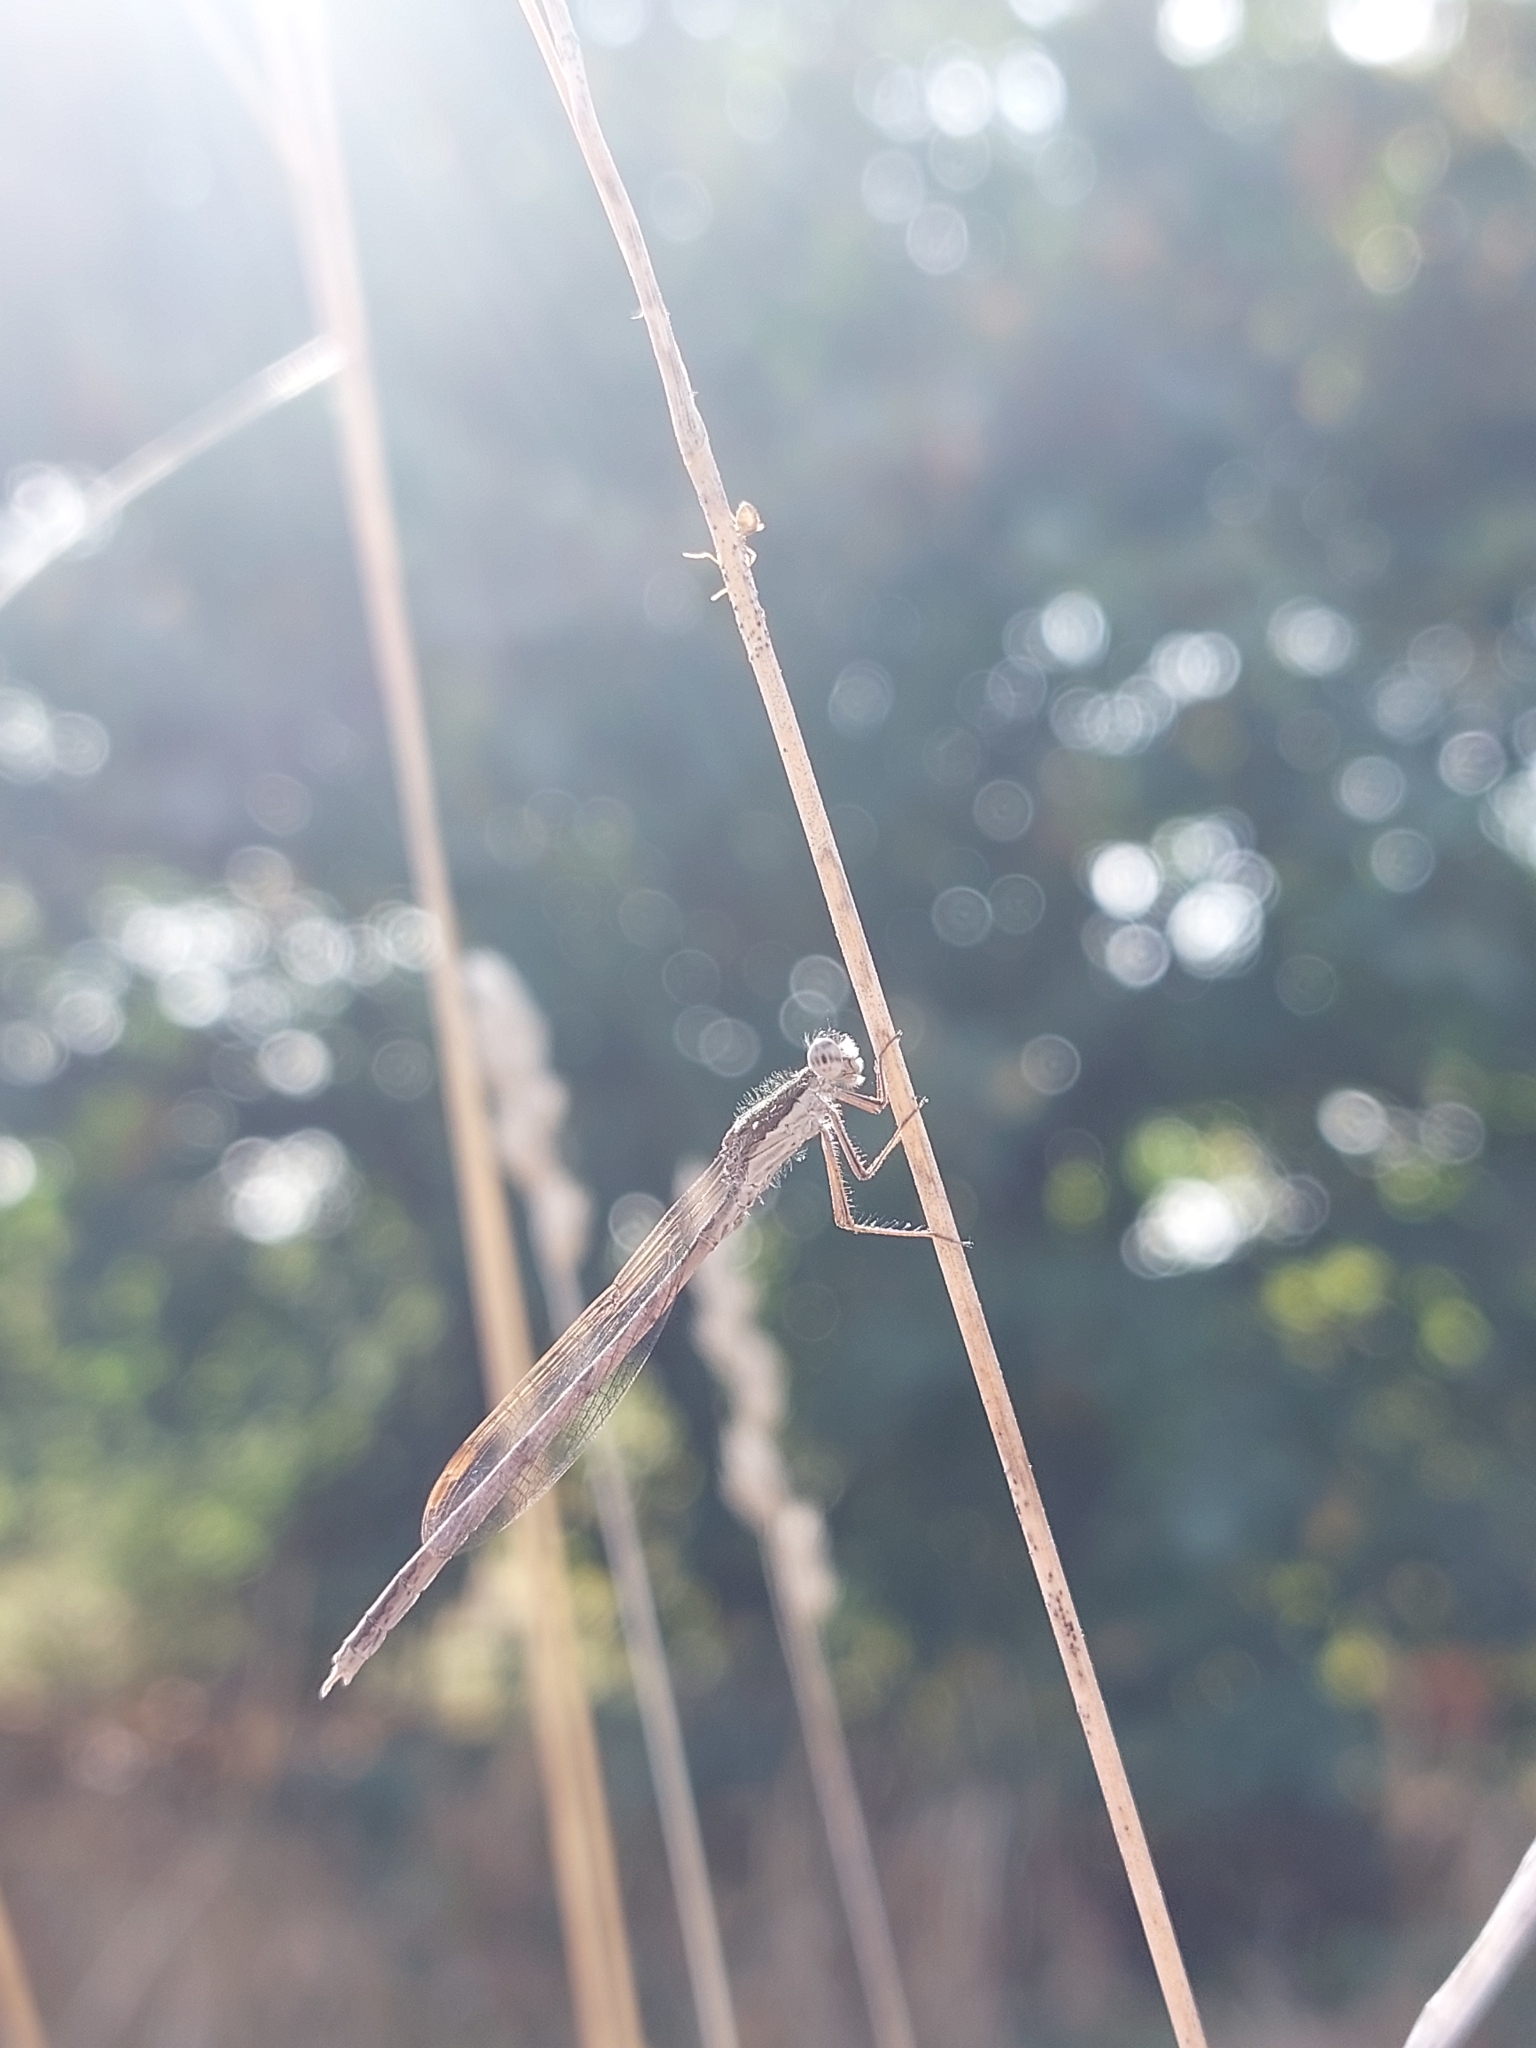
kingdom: Animalia
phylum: Arthropoda
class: Insecta
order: Odonata
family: Lestidae
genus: Sympecma
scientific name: Sympecma fusca
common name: Common winter damsel
